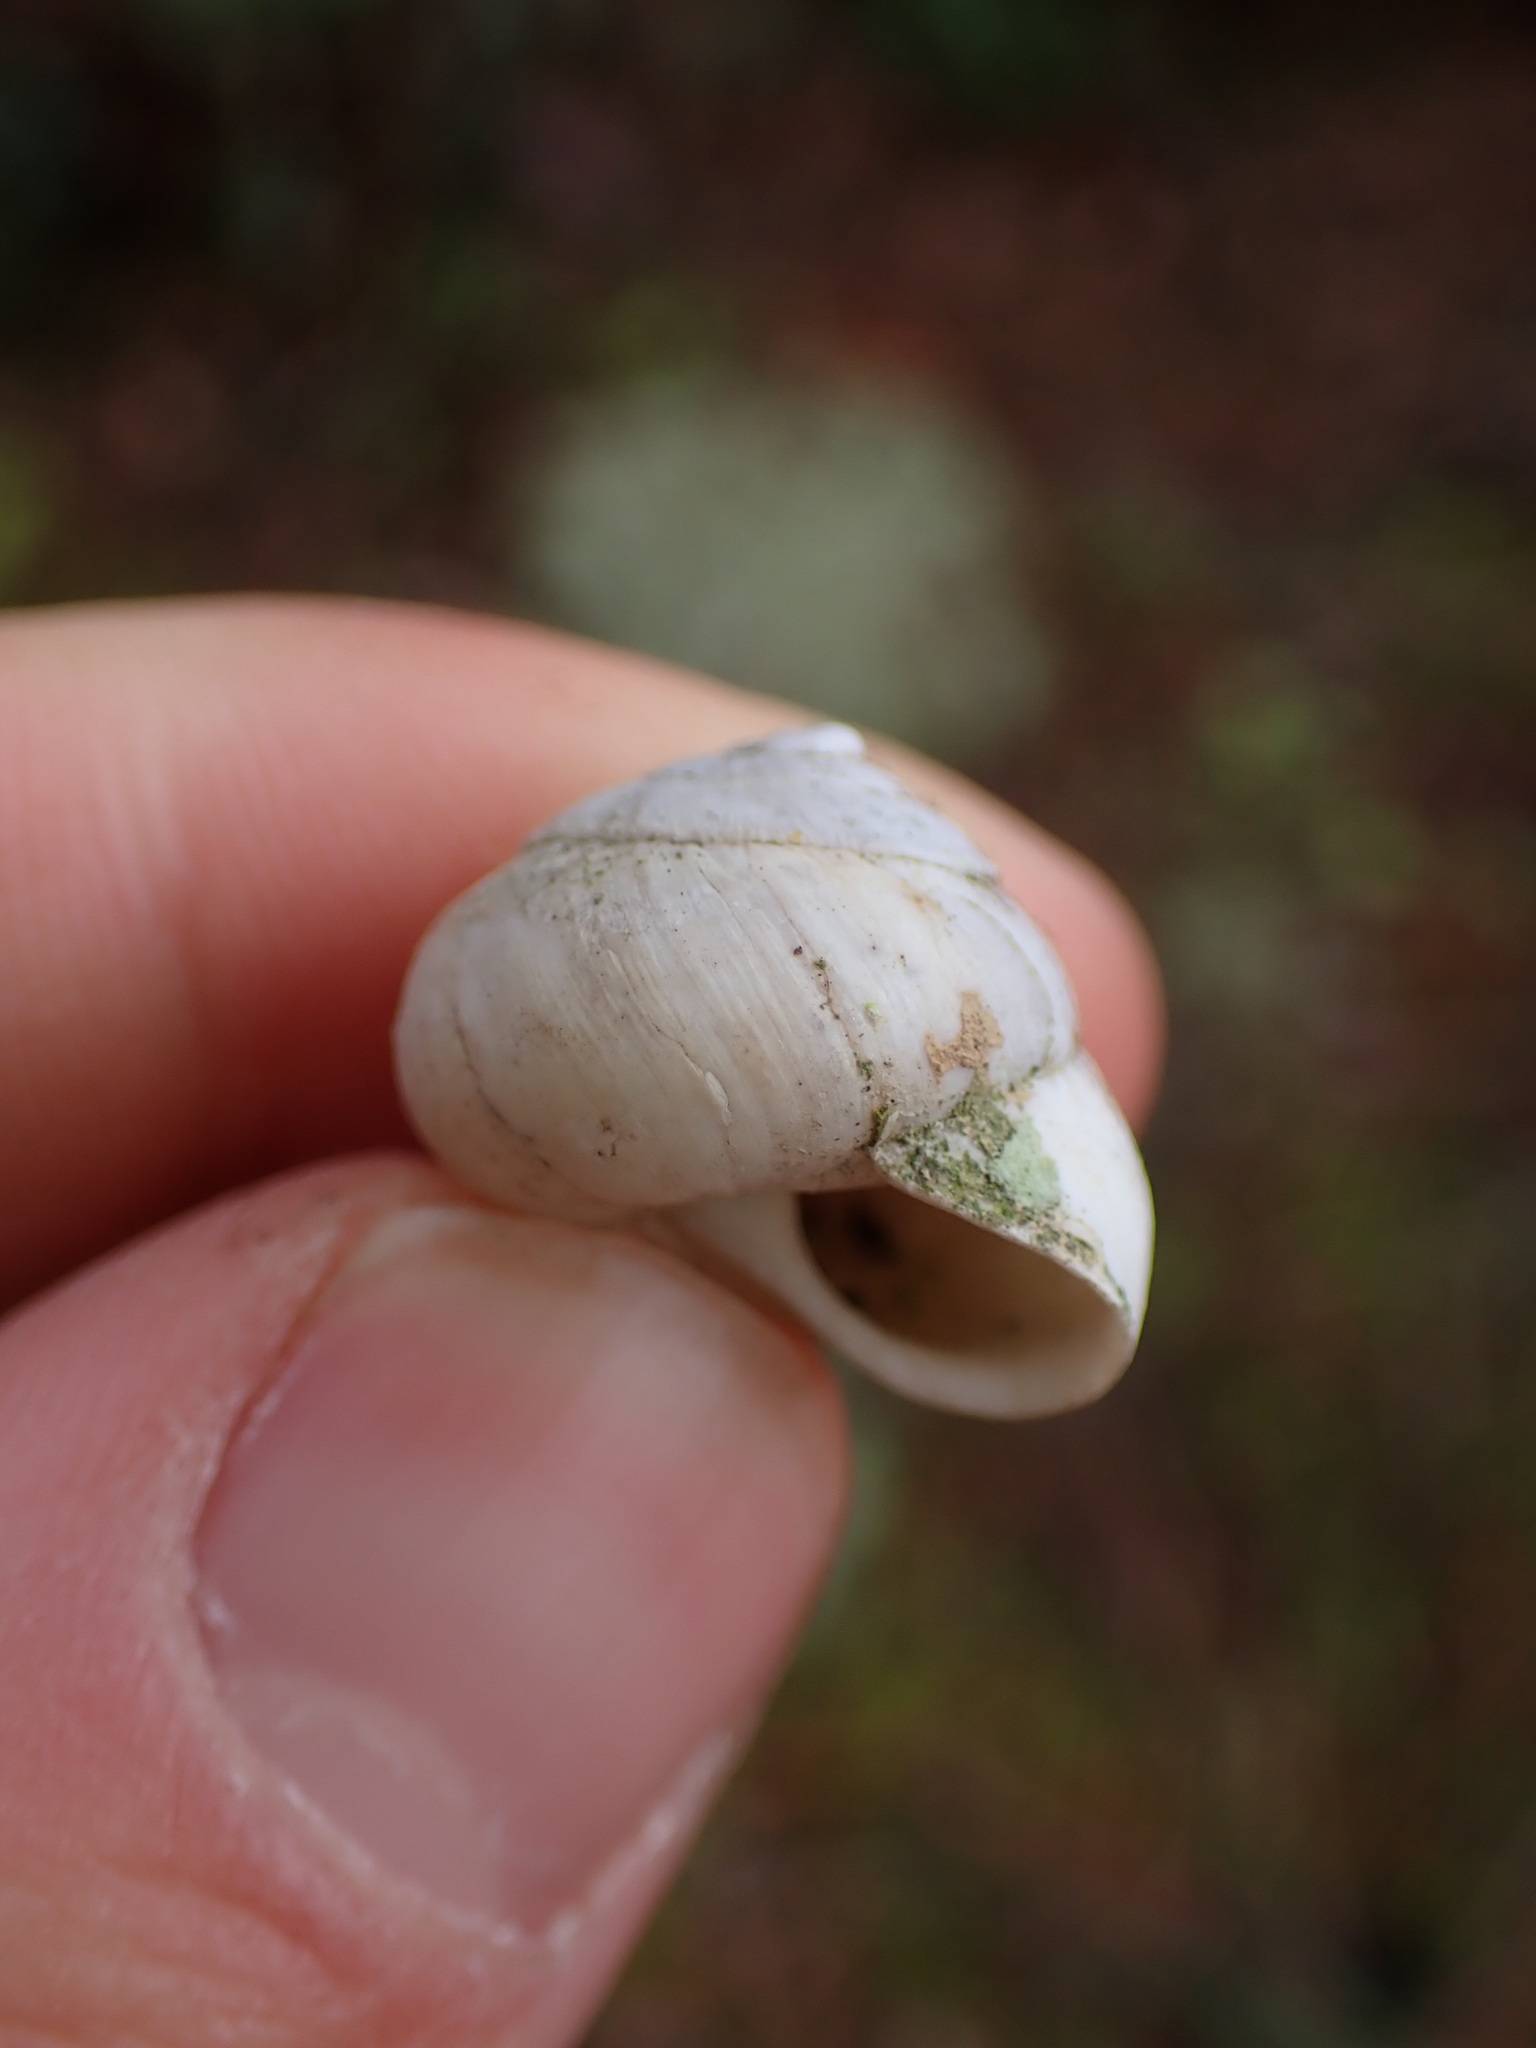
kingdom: Animalia
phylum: Mollusca
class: Gastropoda
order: Stylommatophora
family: Sphincterochilidae
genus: Sphincterochila
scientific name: Sphincterochila candidissima
